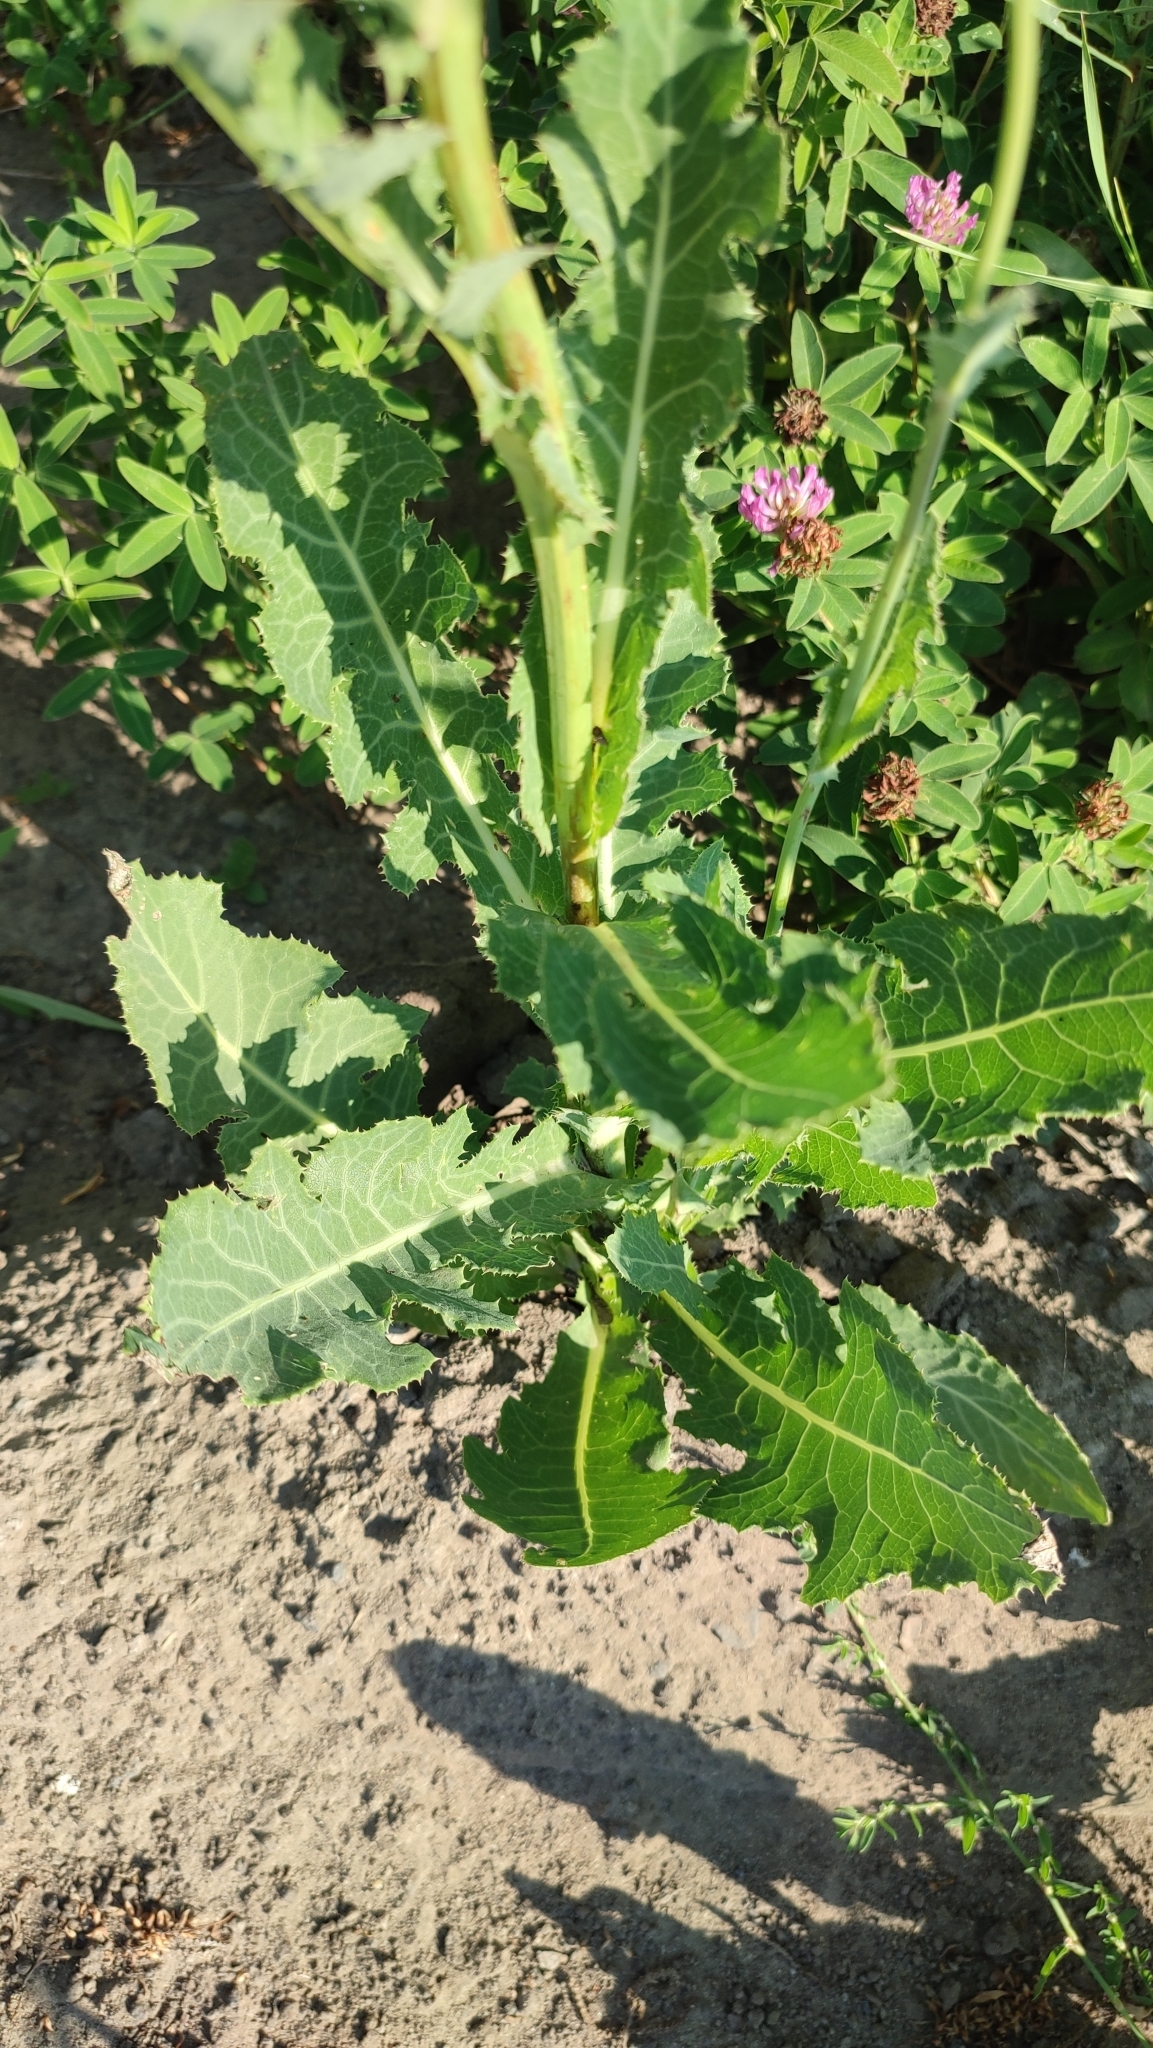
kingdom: Plantae
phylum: Tracheophyta
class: Magnoliopsida
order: Asterales
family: Asteraceae
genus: Sonchus
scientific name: Sonchus arvensis
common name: Perennial sow-thistle
